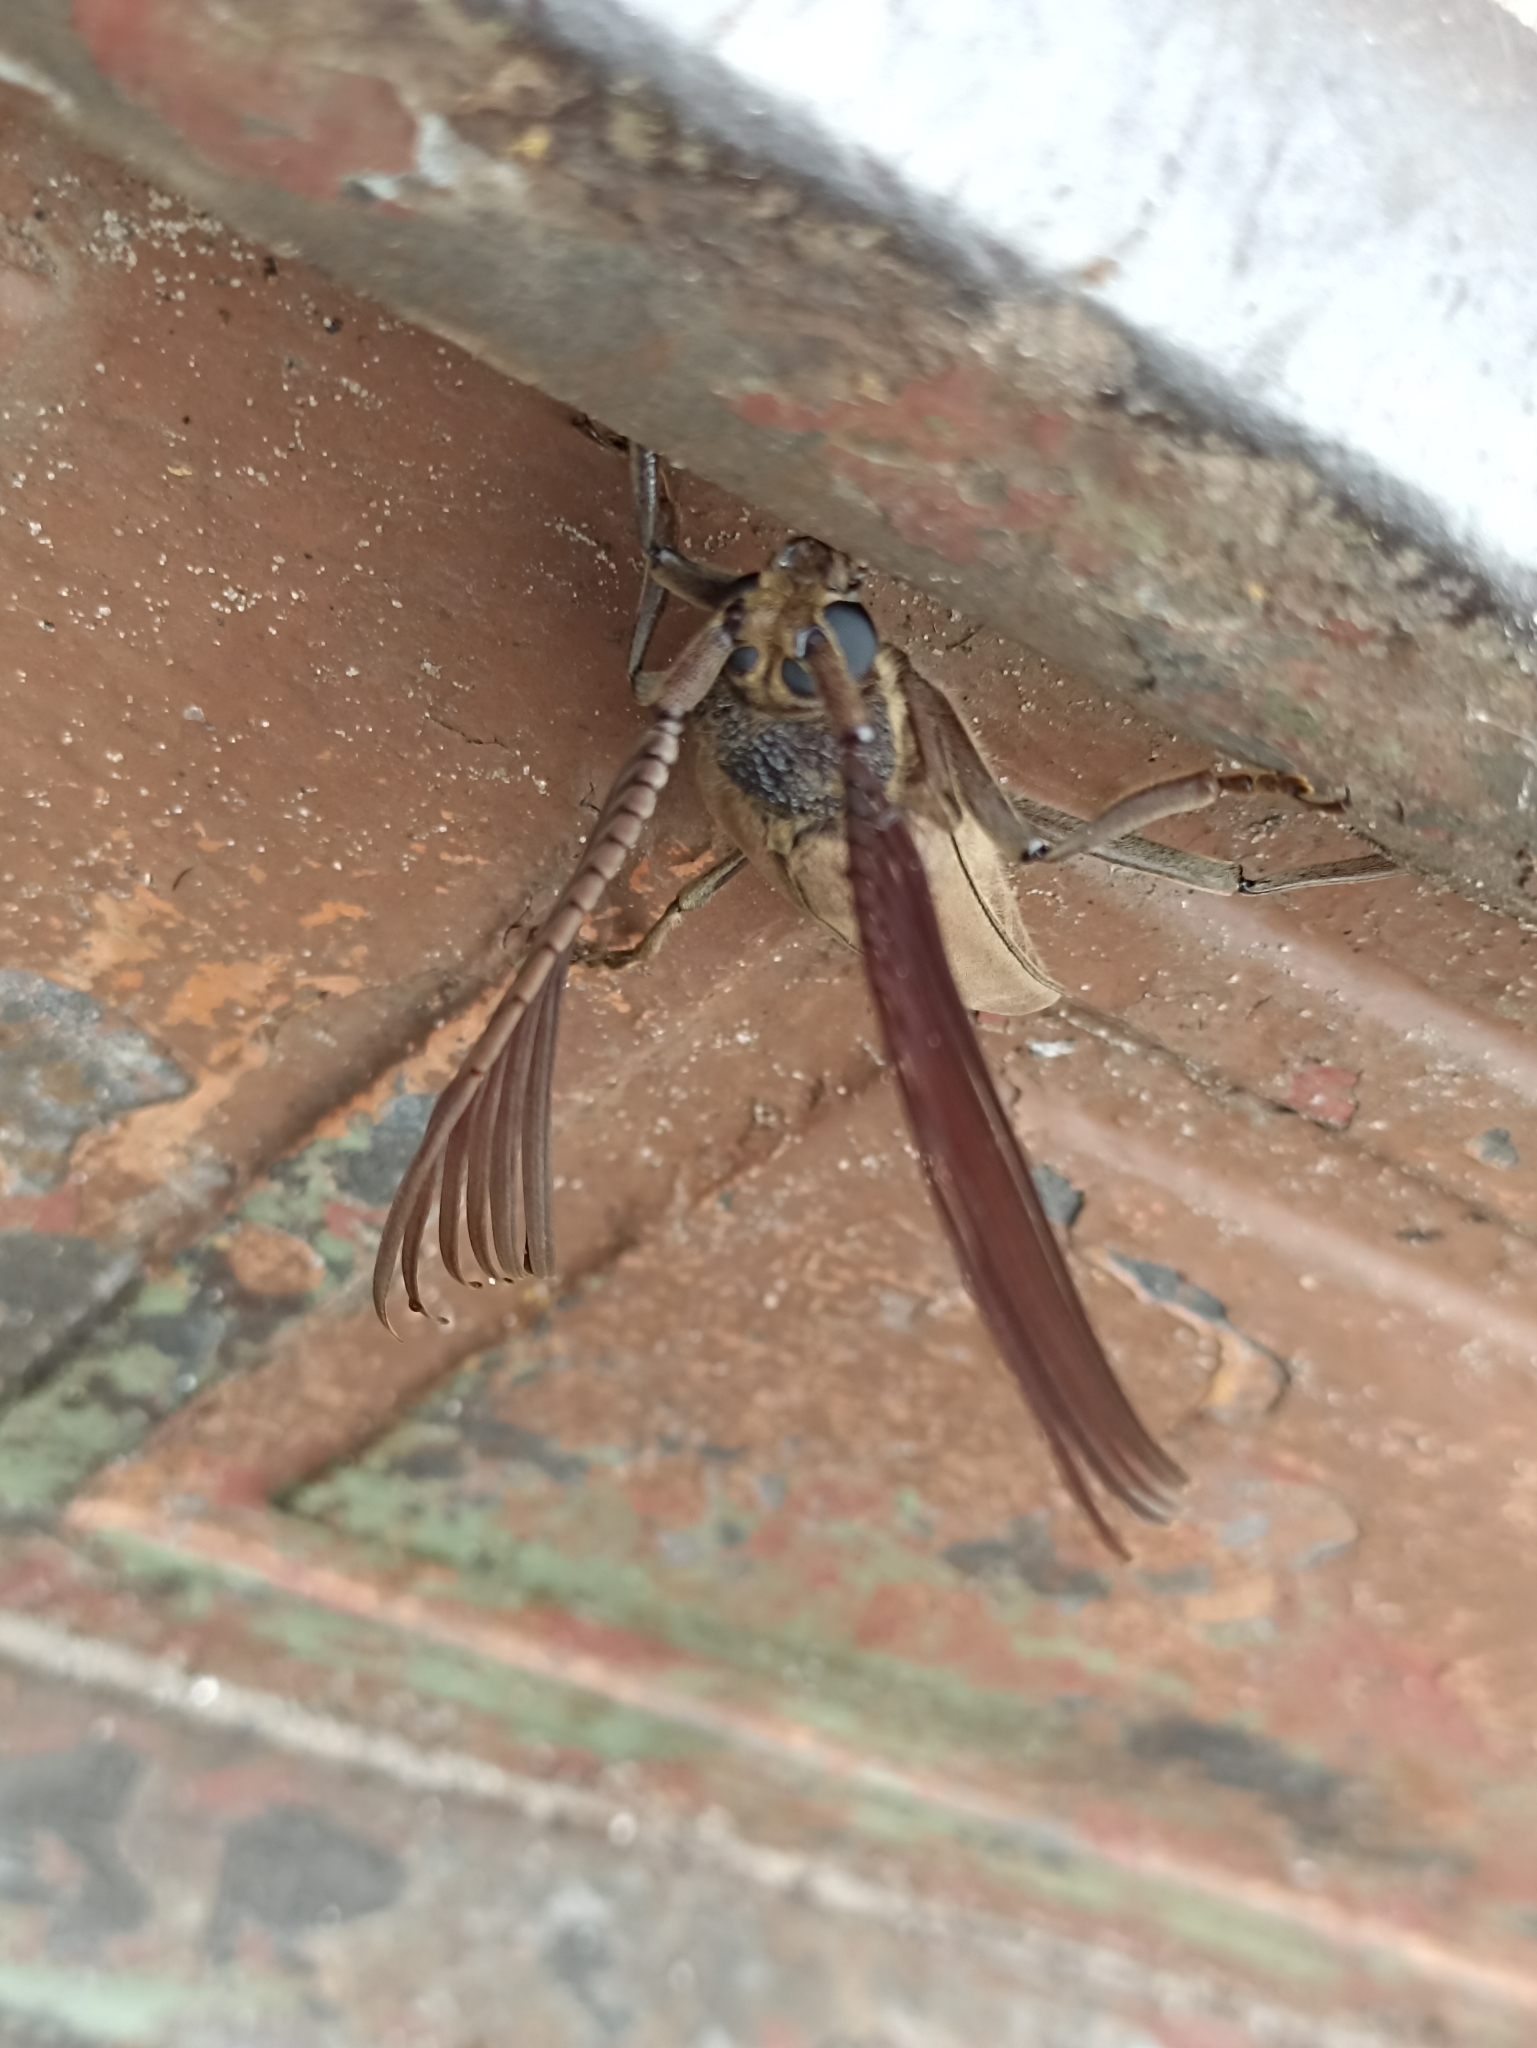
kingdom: Animalia
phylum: Arthropoda
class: Insecta
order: Coleoptera
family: Cerambycidae
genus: Psygmatocerus
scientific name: Psygmatocerus wagleri
